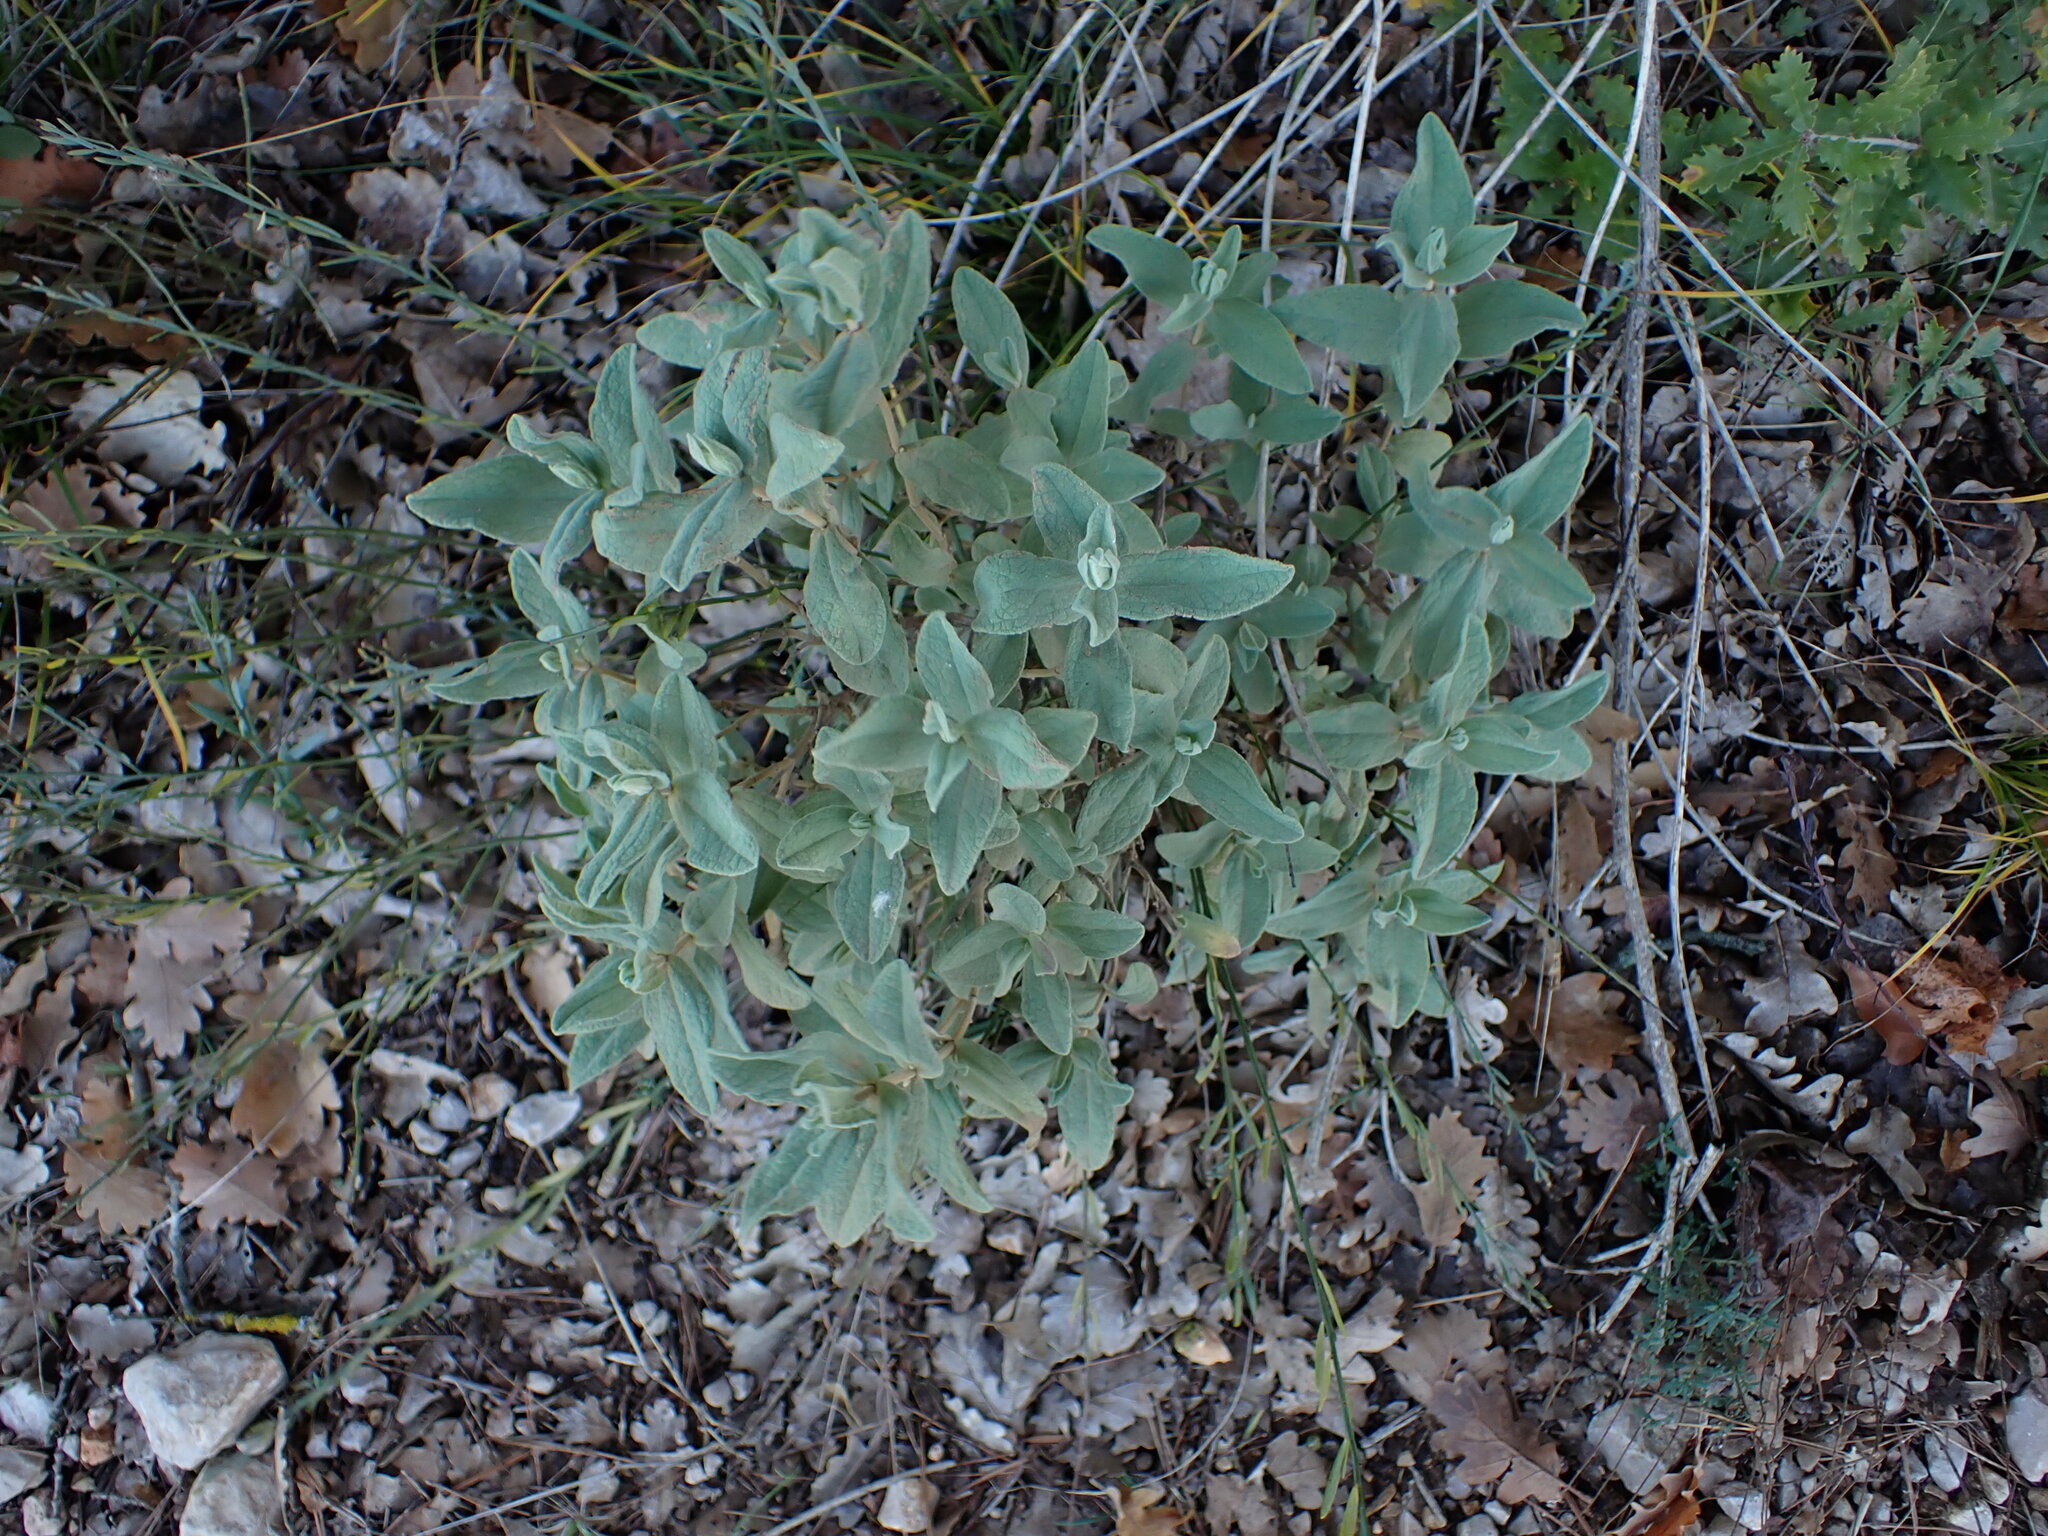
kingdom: Plantae
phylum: Tracheophyta
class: Magnoliopsida
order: Malvales
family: Cistaceae
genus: Cistus
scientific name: Cistus albidus
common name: White-leaf rock-rose
